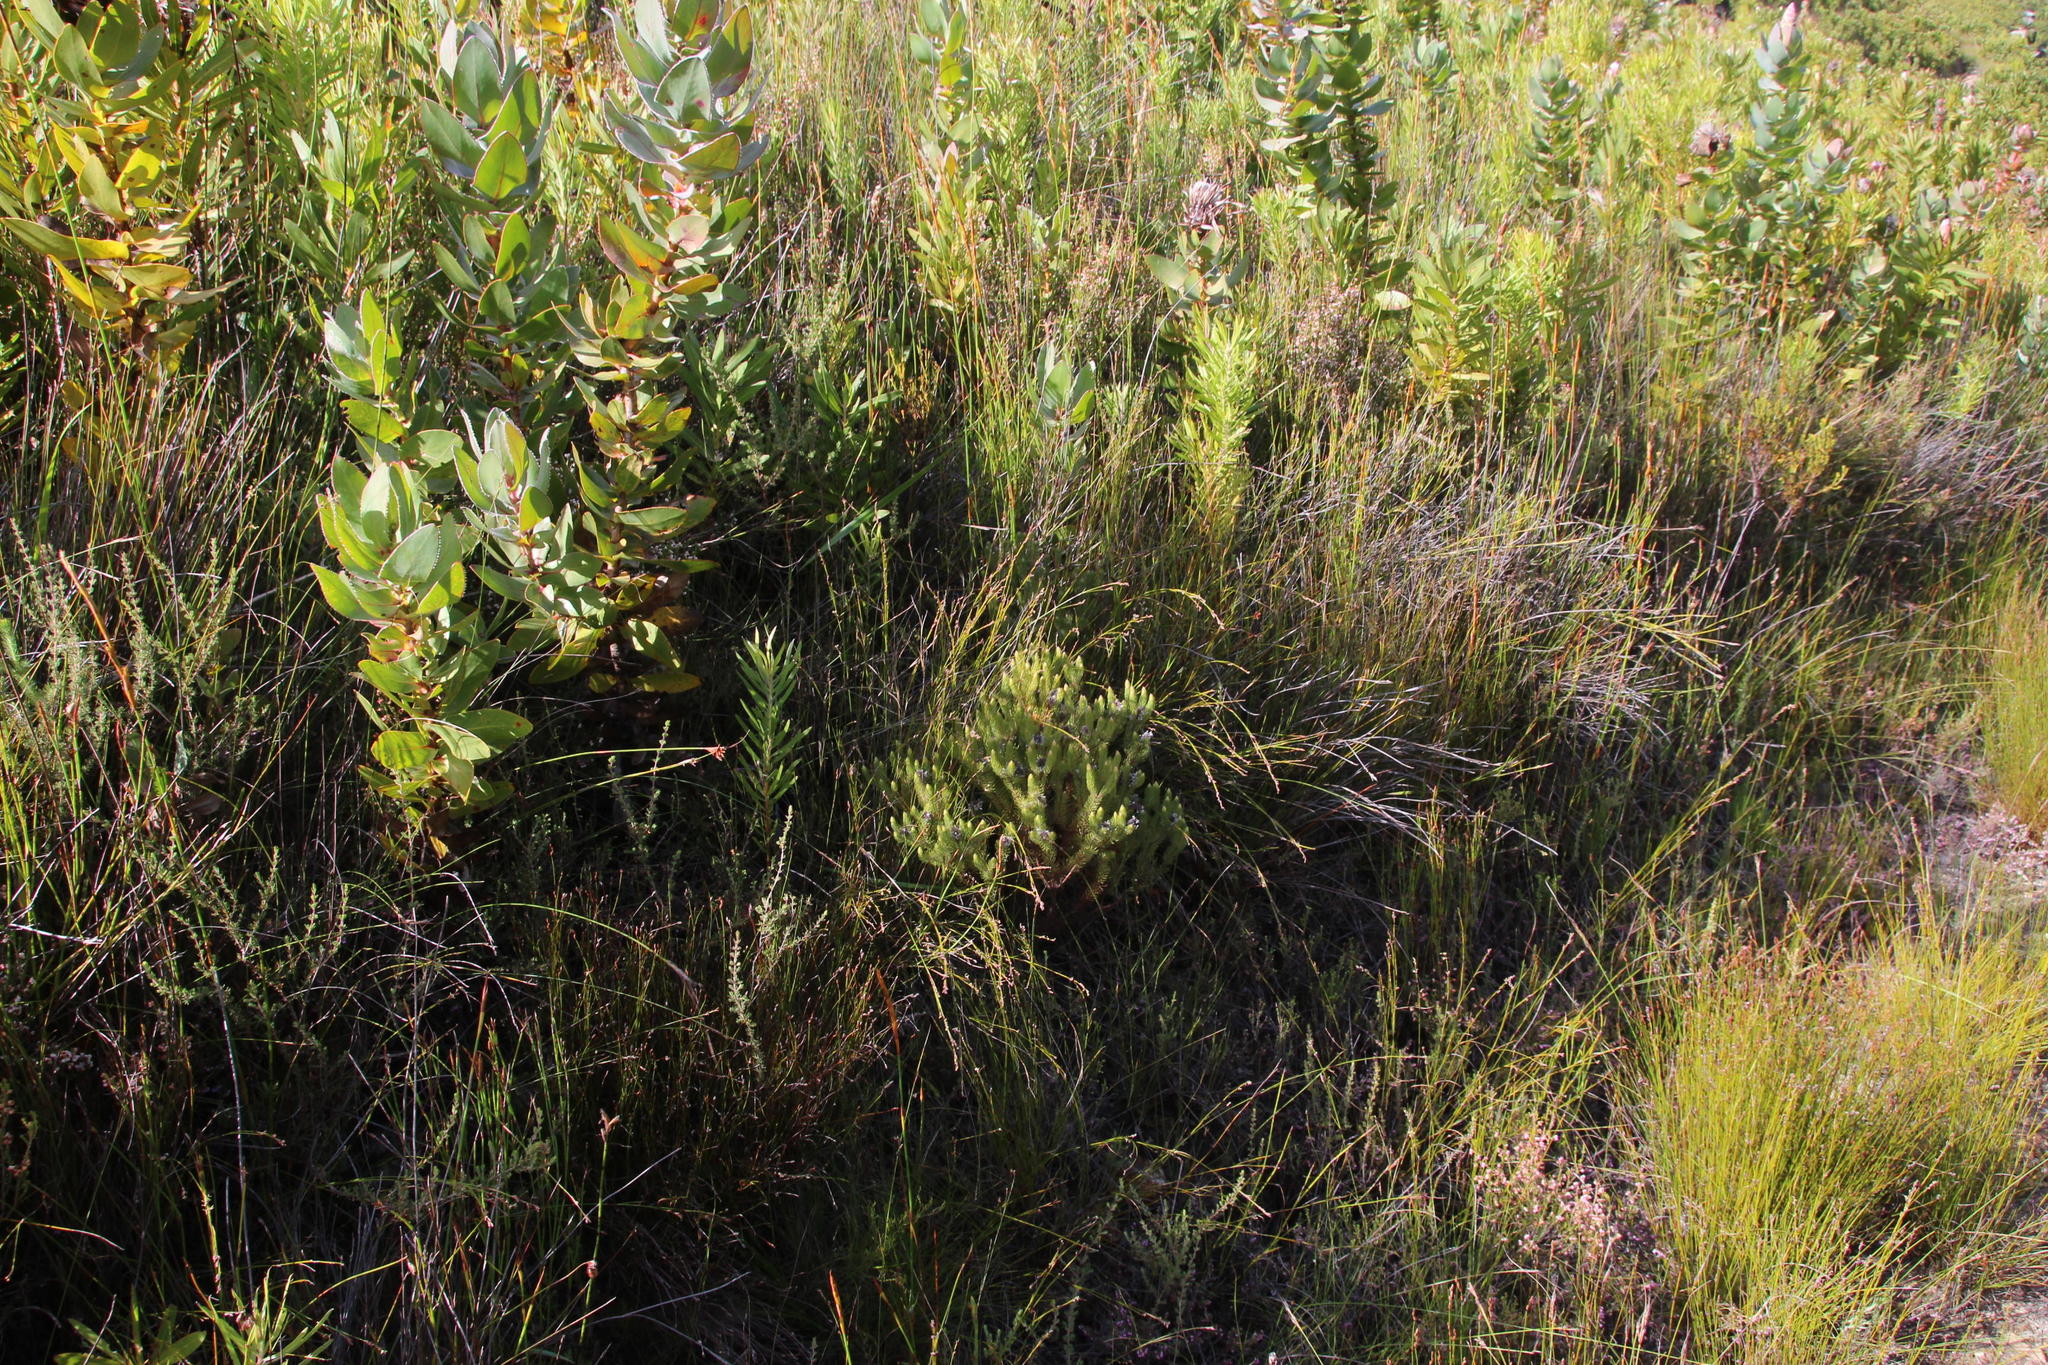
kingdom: Plantae
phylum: Tracheophyta
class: Magnoliopsida
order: Proteales
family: Proteaceae
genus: Spatalla
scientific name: Spatalla parilis
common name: Spike spoon
